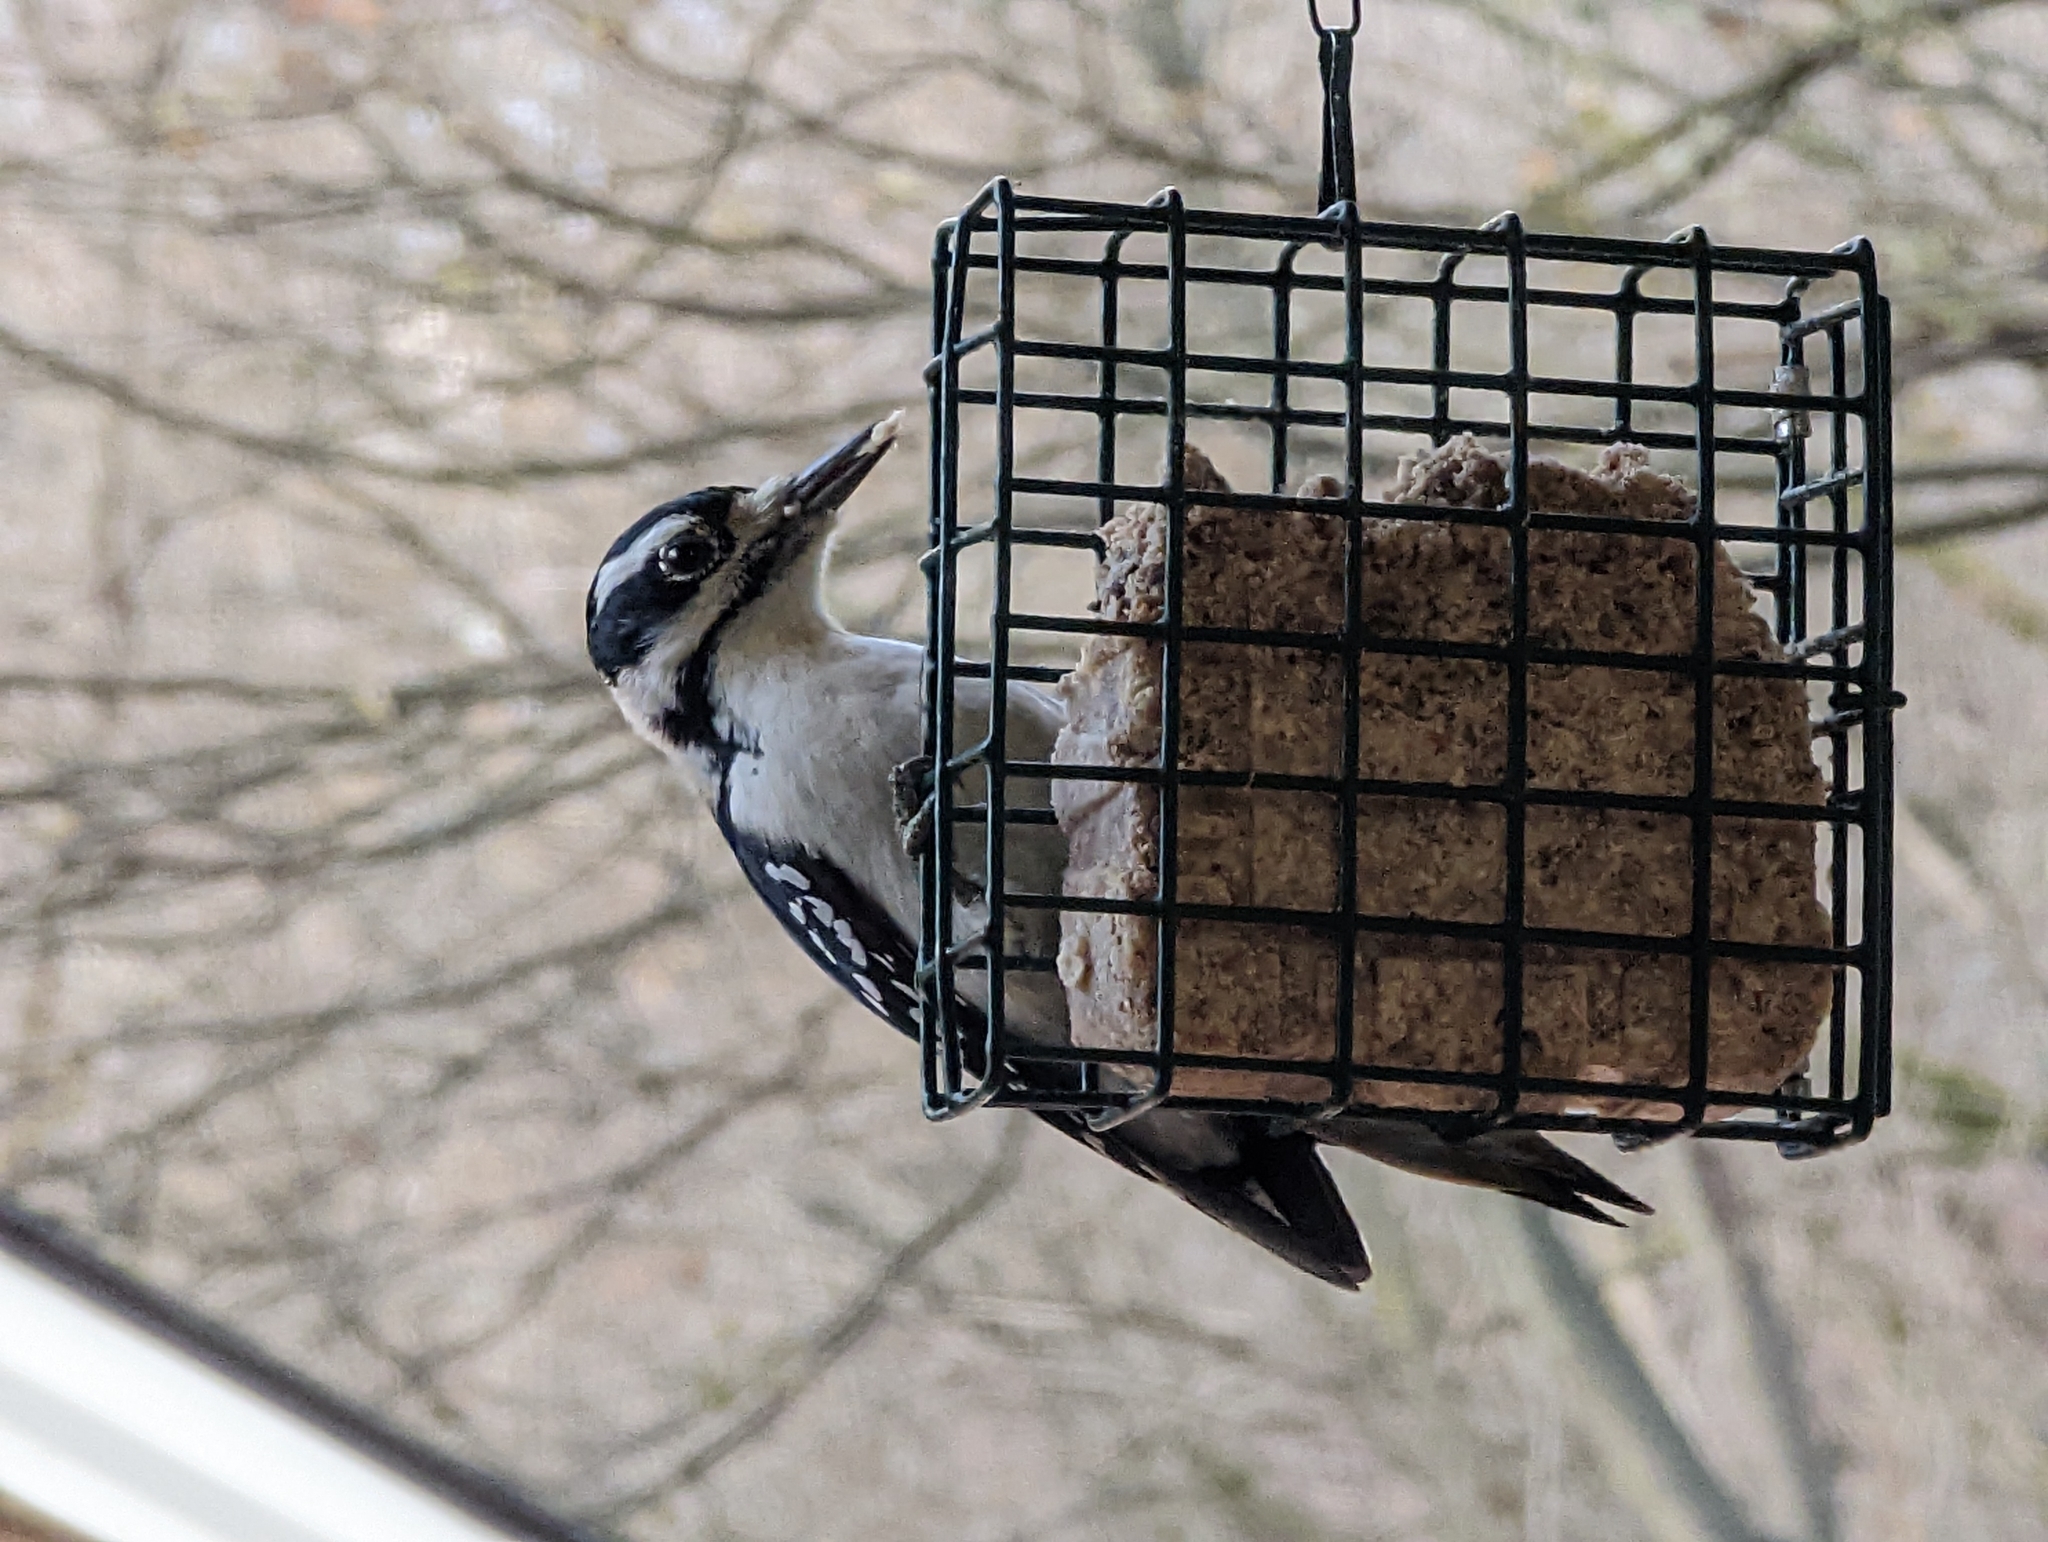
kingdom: Animalia
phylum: Chordata
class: Aves
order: Piciformes
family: Picidae
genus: Leuconotopicus
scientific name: Leuconotopicus villosus
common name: Hairy woodpecker
